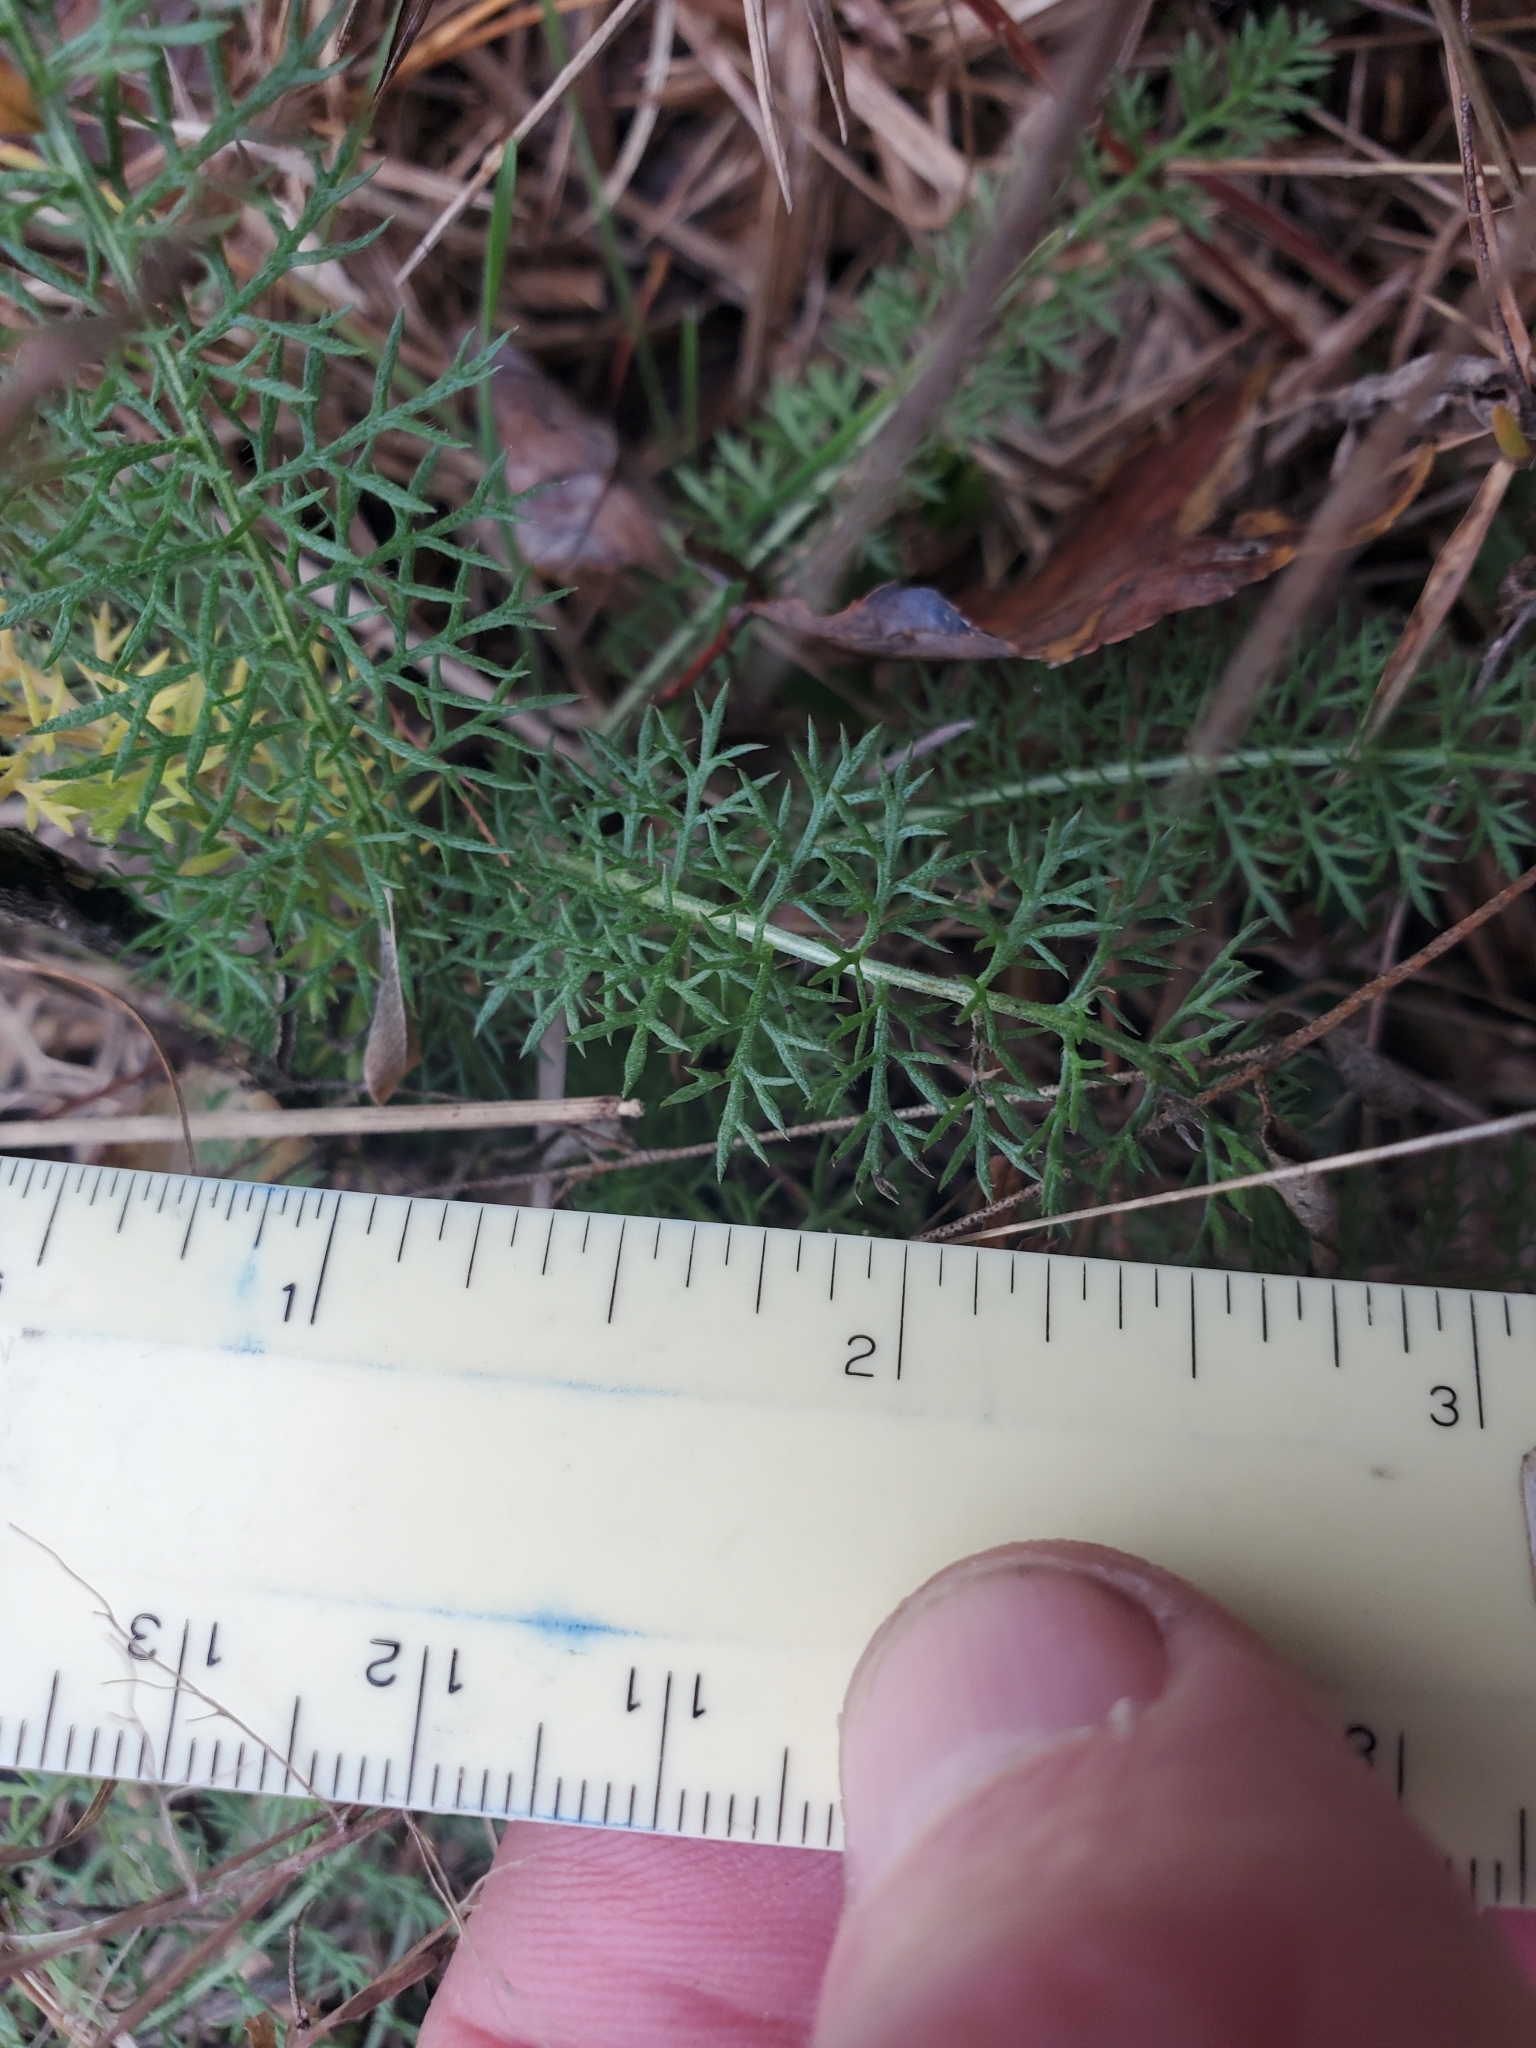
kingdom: Plantae
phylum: Tracheophyta
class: Magnoliopsida
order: Asterales
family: Asteraceae
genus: Achillea
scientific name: Achillea millefolium
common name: Yarrow
